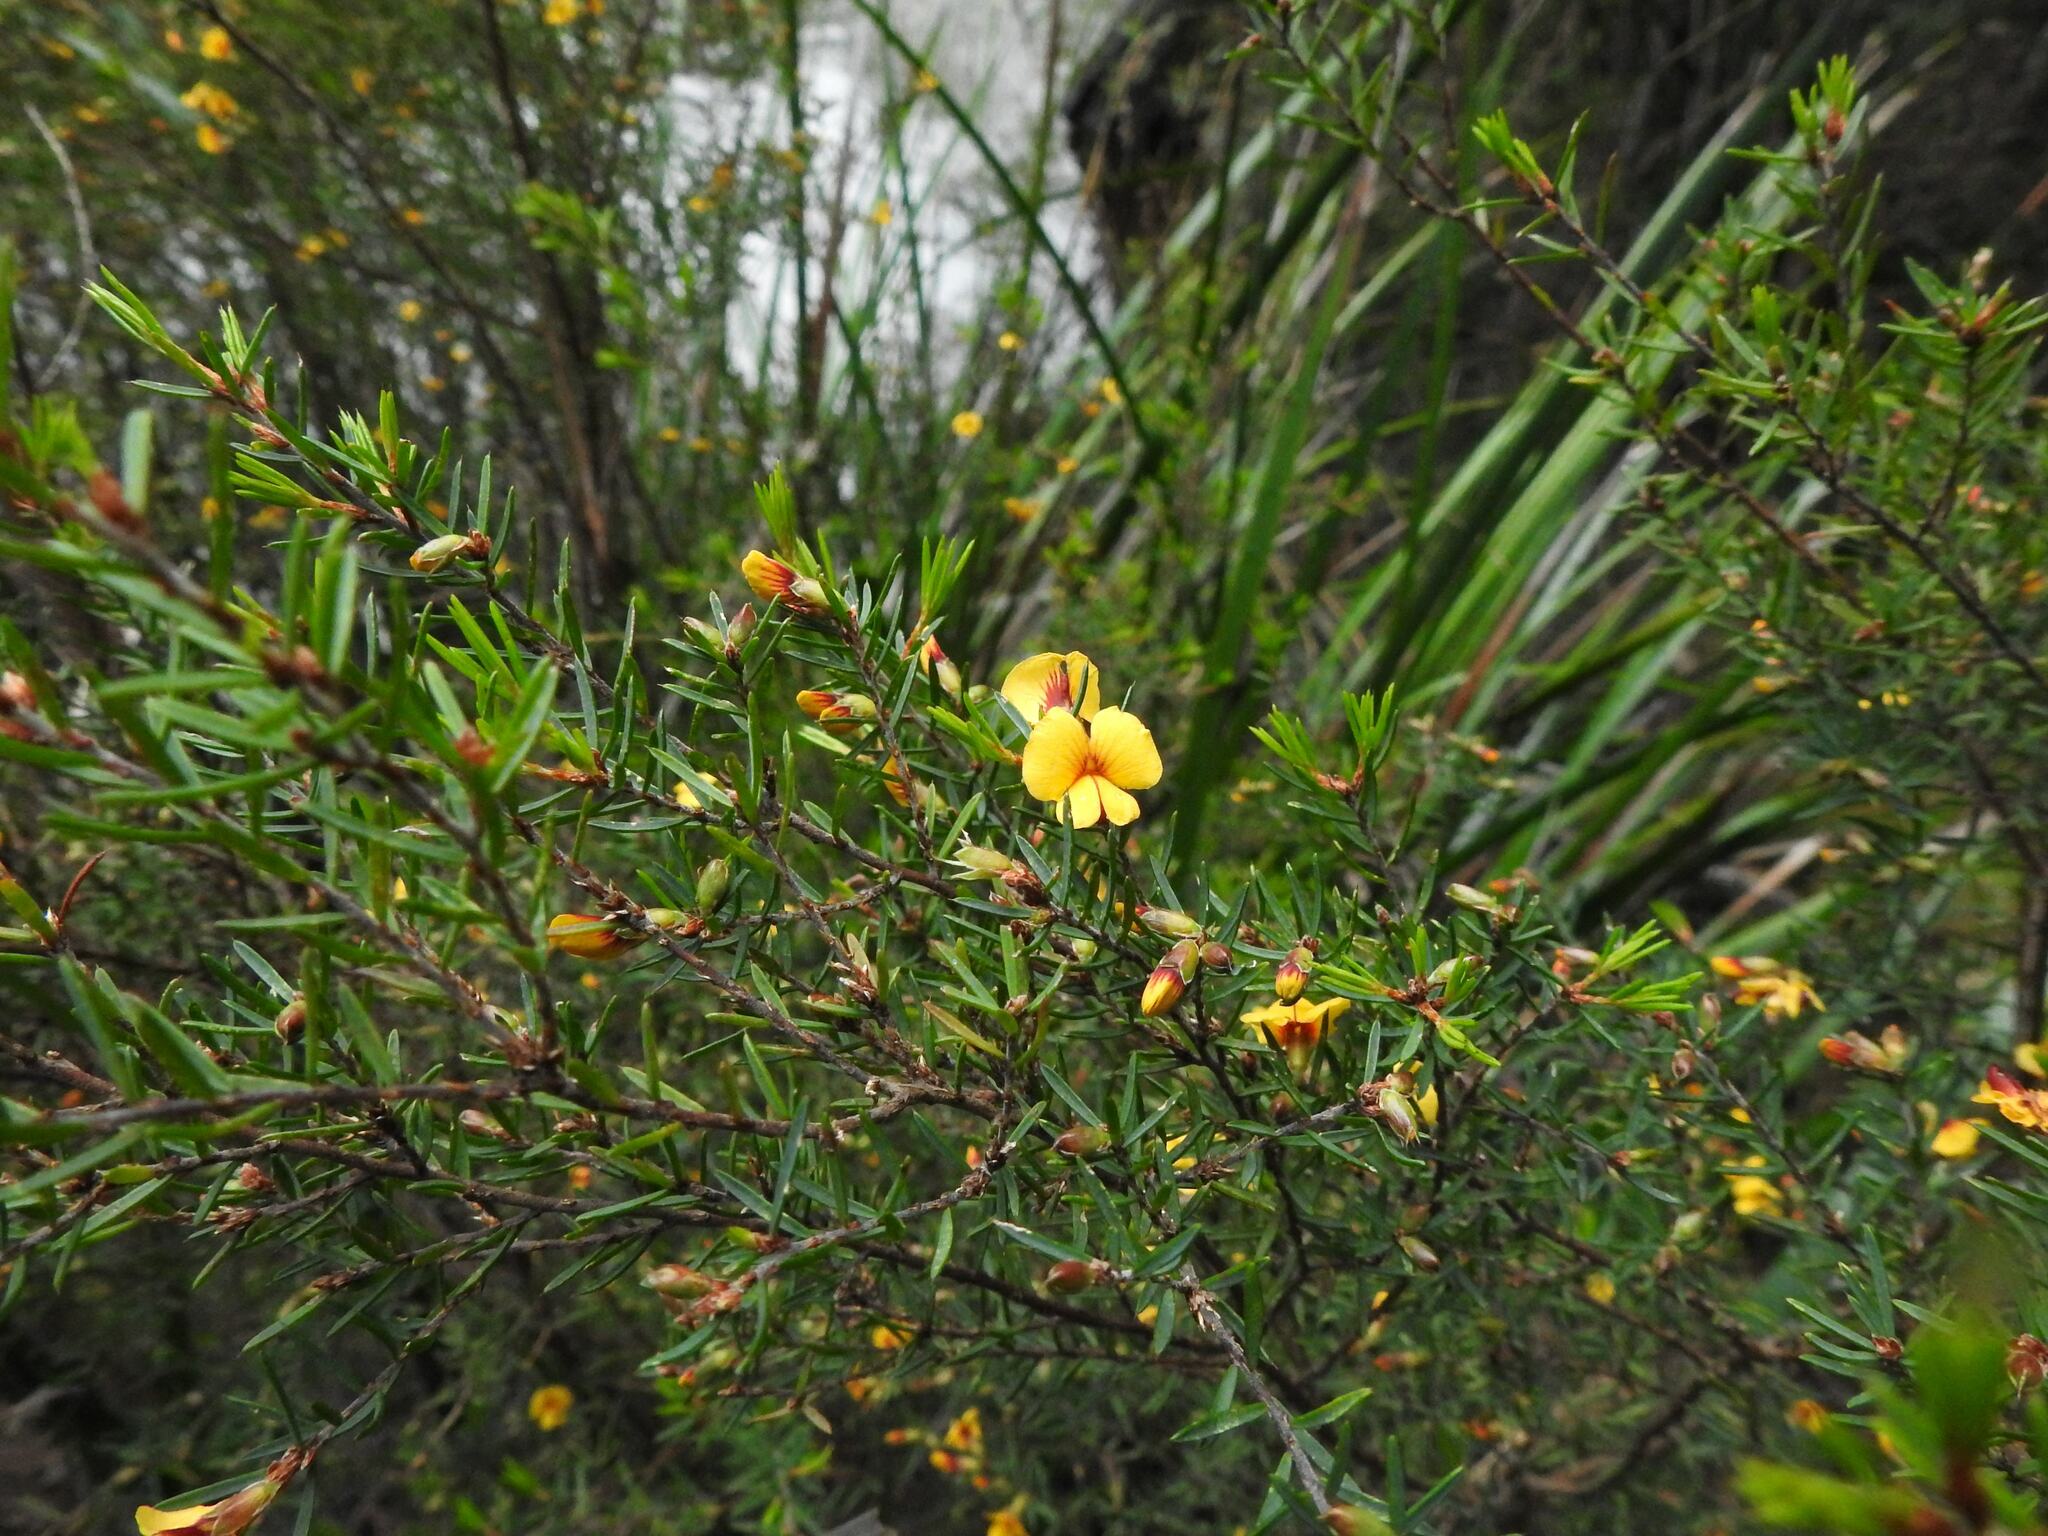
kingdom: Plantae
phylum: Tracheophyta
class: Magnoliopsida
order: Fabales
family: Fabaceae
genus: Pultenaea
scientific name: Pultenaea juniperina
